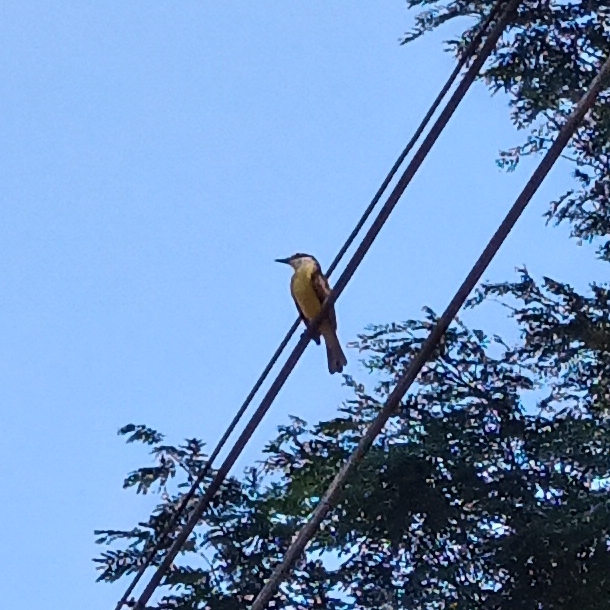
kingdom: Animalia
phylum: Chordata
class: Aves
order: Passeriformes
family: Tyrannidae
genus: Pitangus
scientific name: Pitangus sulphuratus
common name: Great kiskadee
